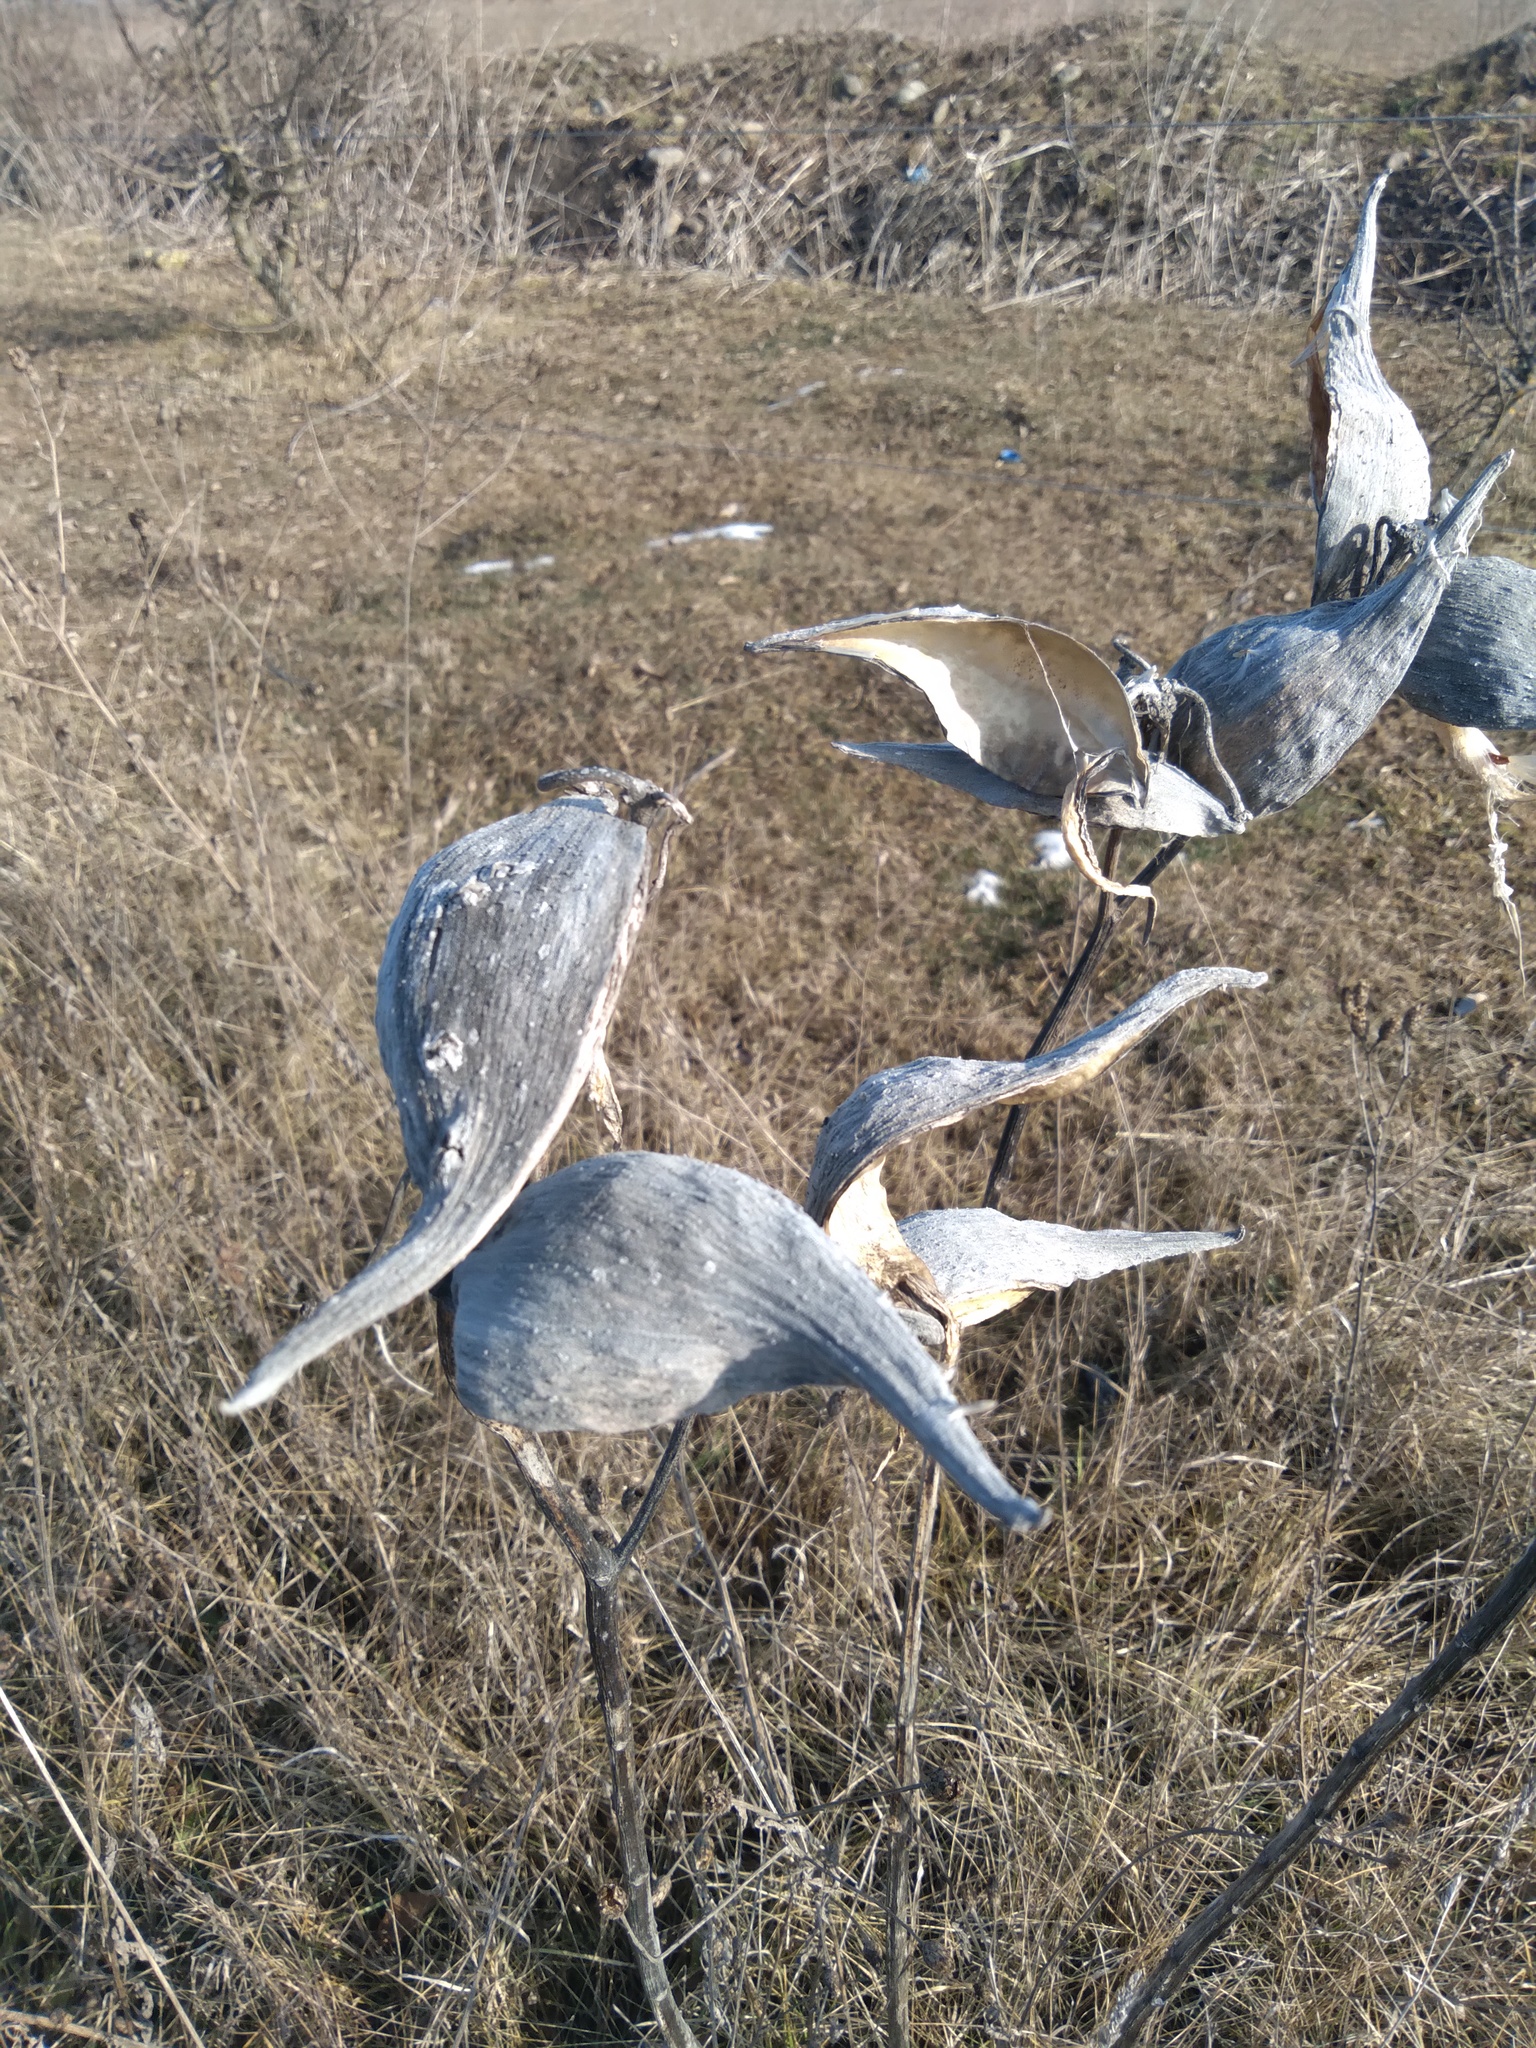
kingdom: Plantae
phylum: Tracheophyta
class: Magnoliopsida
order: Gentianales
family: Apocynaceae
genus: Asclepias
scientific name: Asclepias syriaca
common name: Common milkweed
